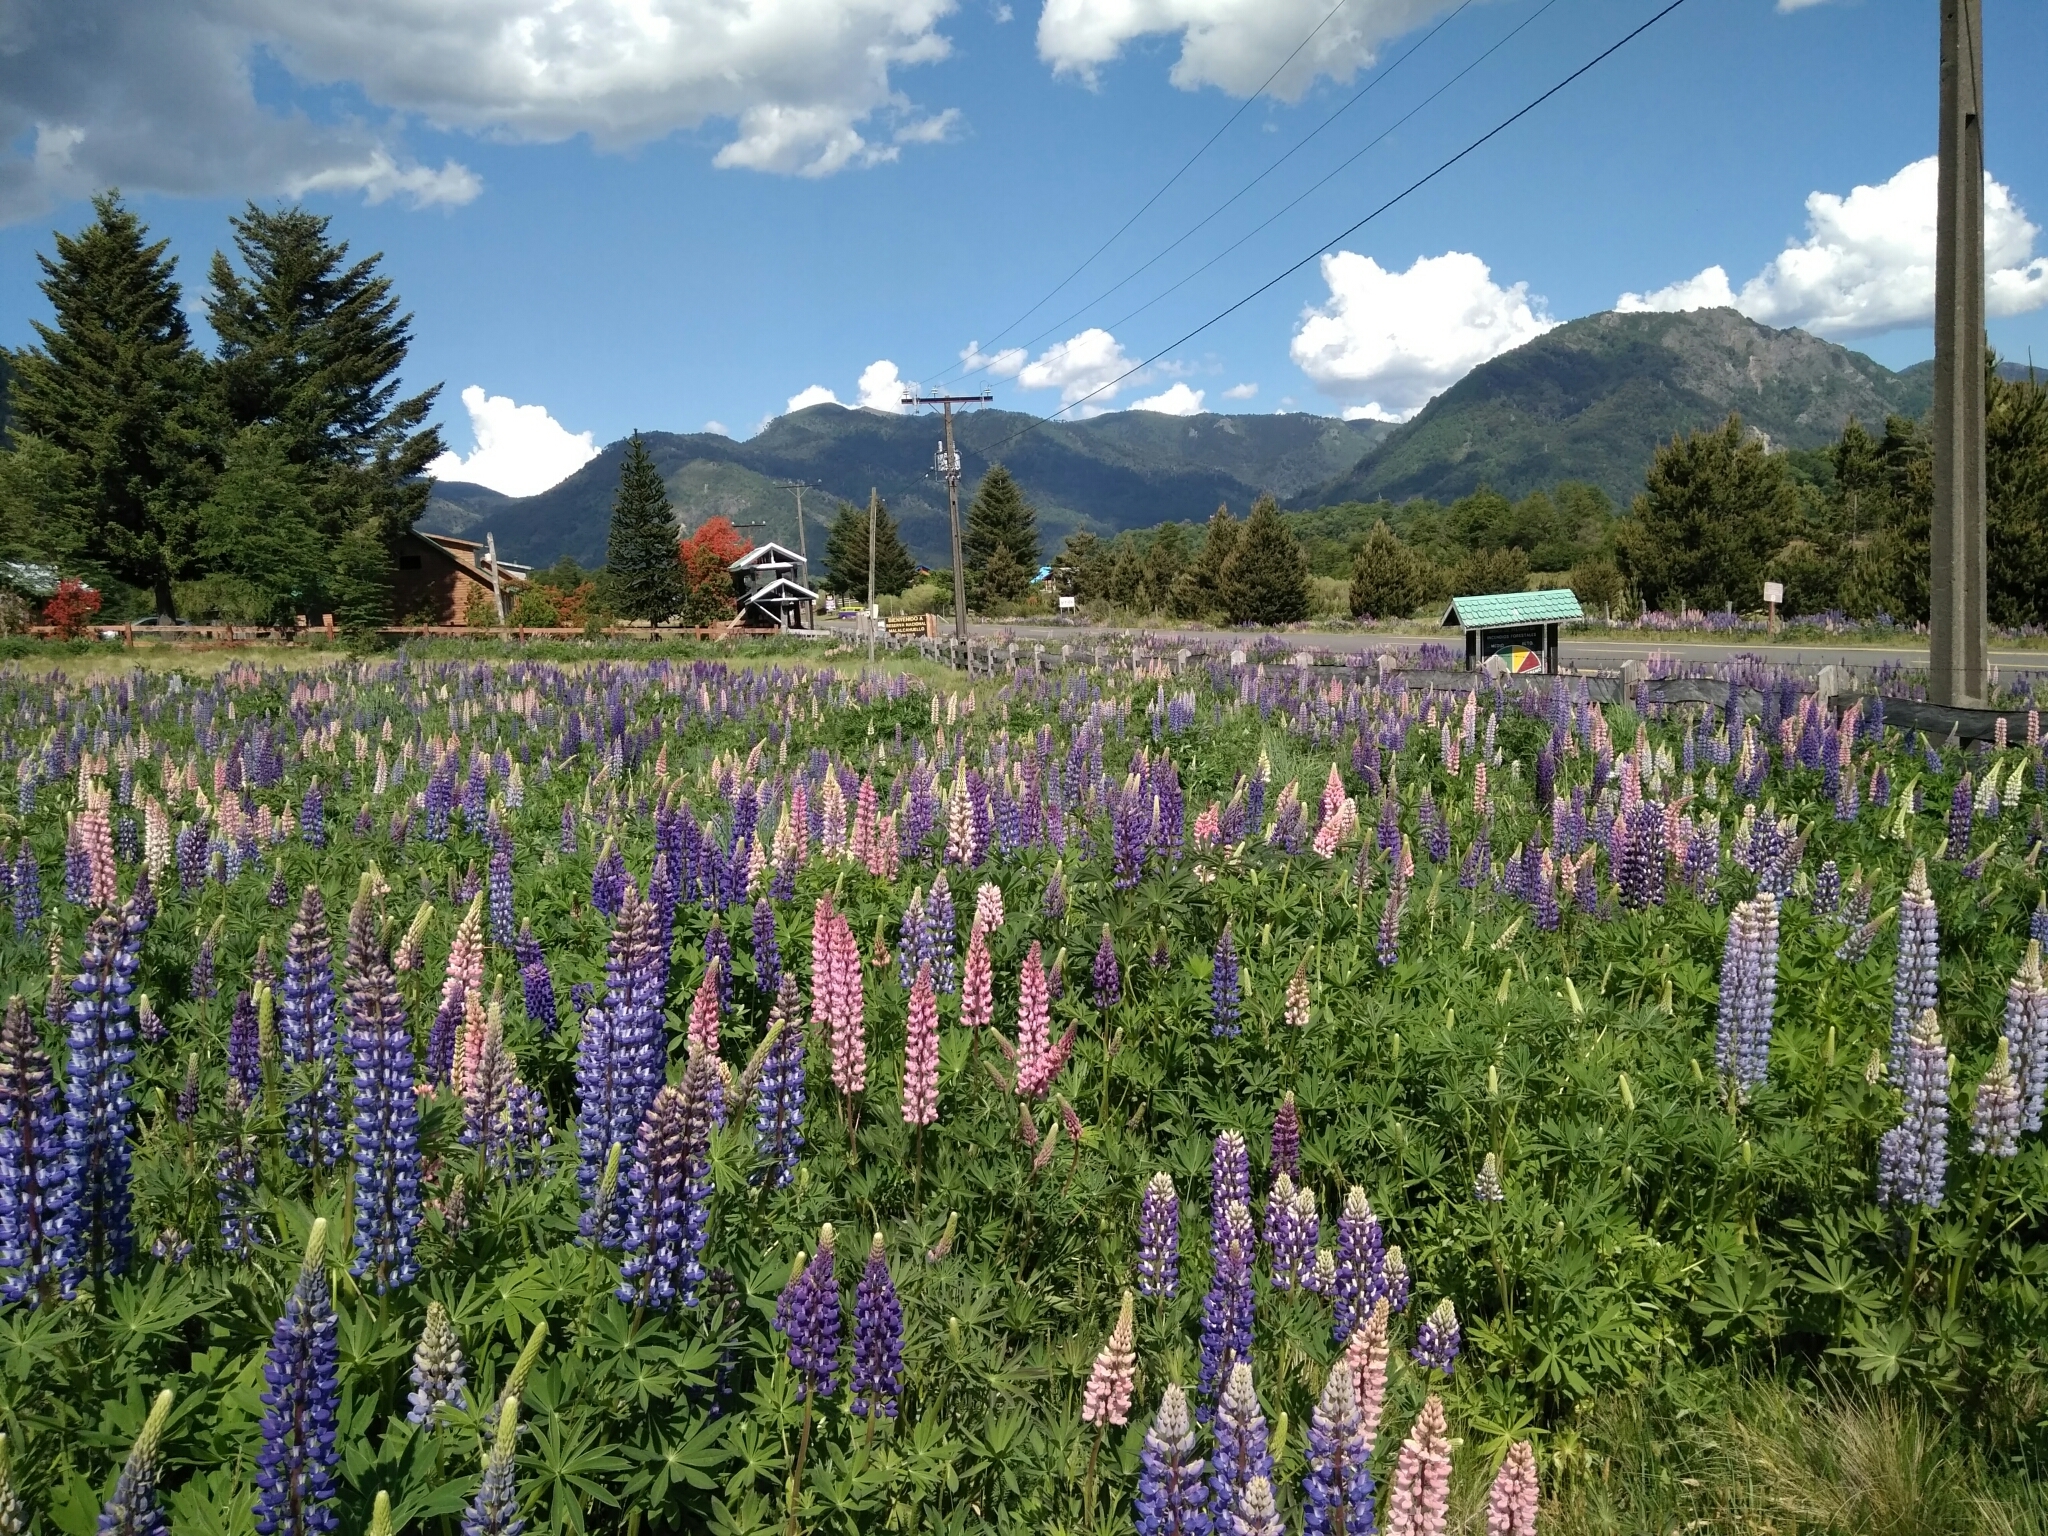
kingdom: Plantae
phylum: Tracheophyta
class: Magnoliopsida
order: Fabales
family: Fabaceae
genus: Lupinus
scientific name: Lupinus polyphyllus
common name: Garden lupin
